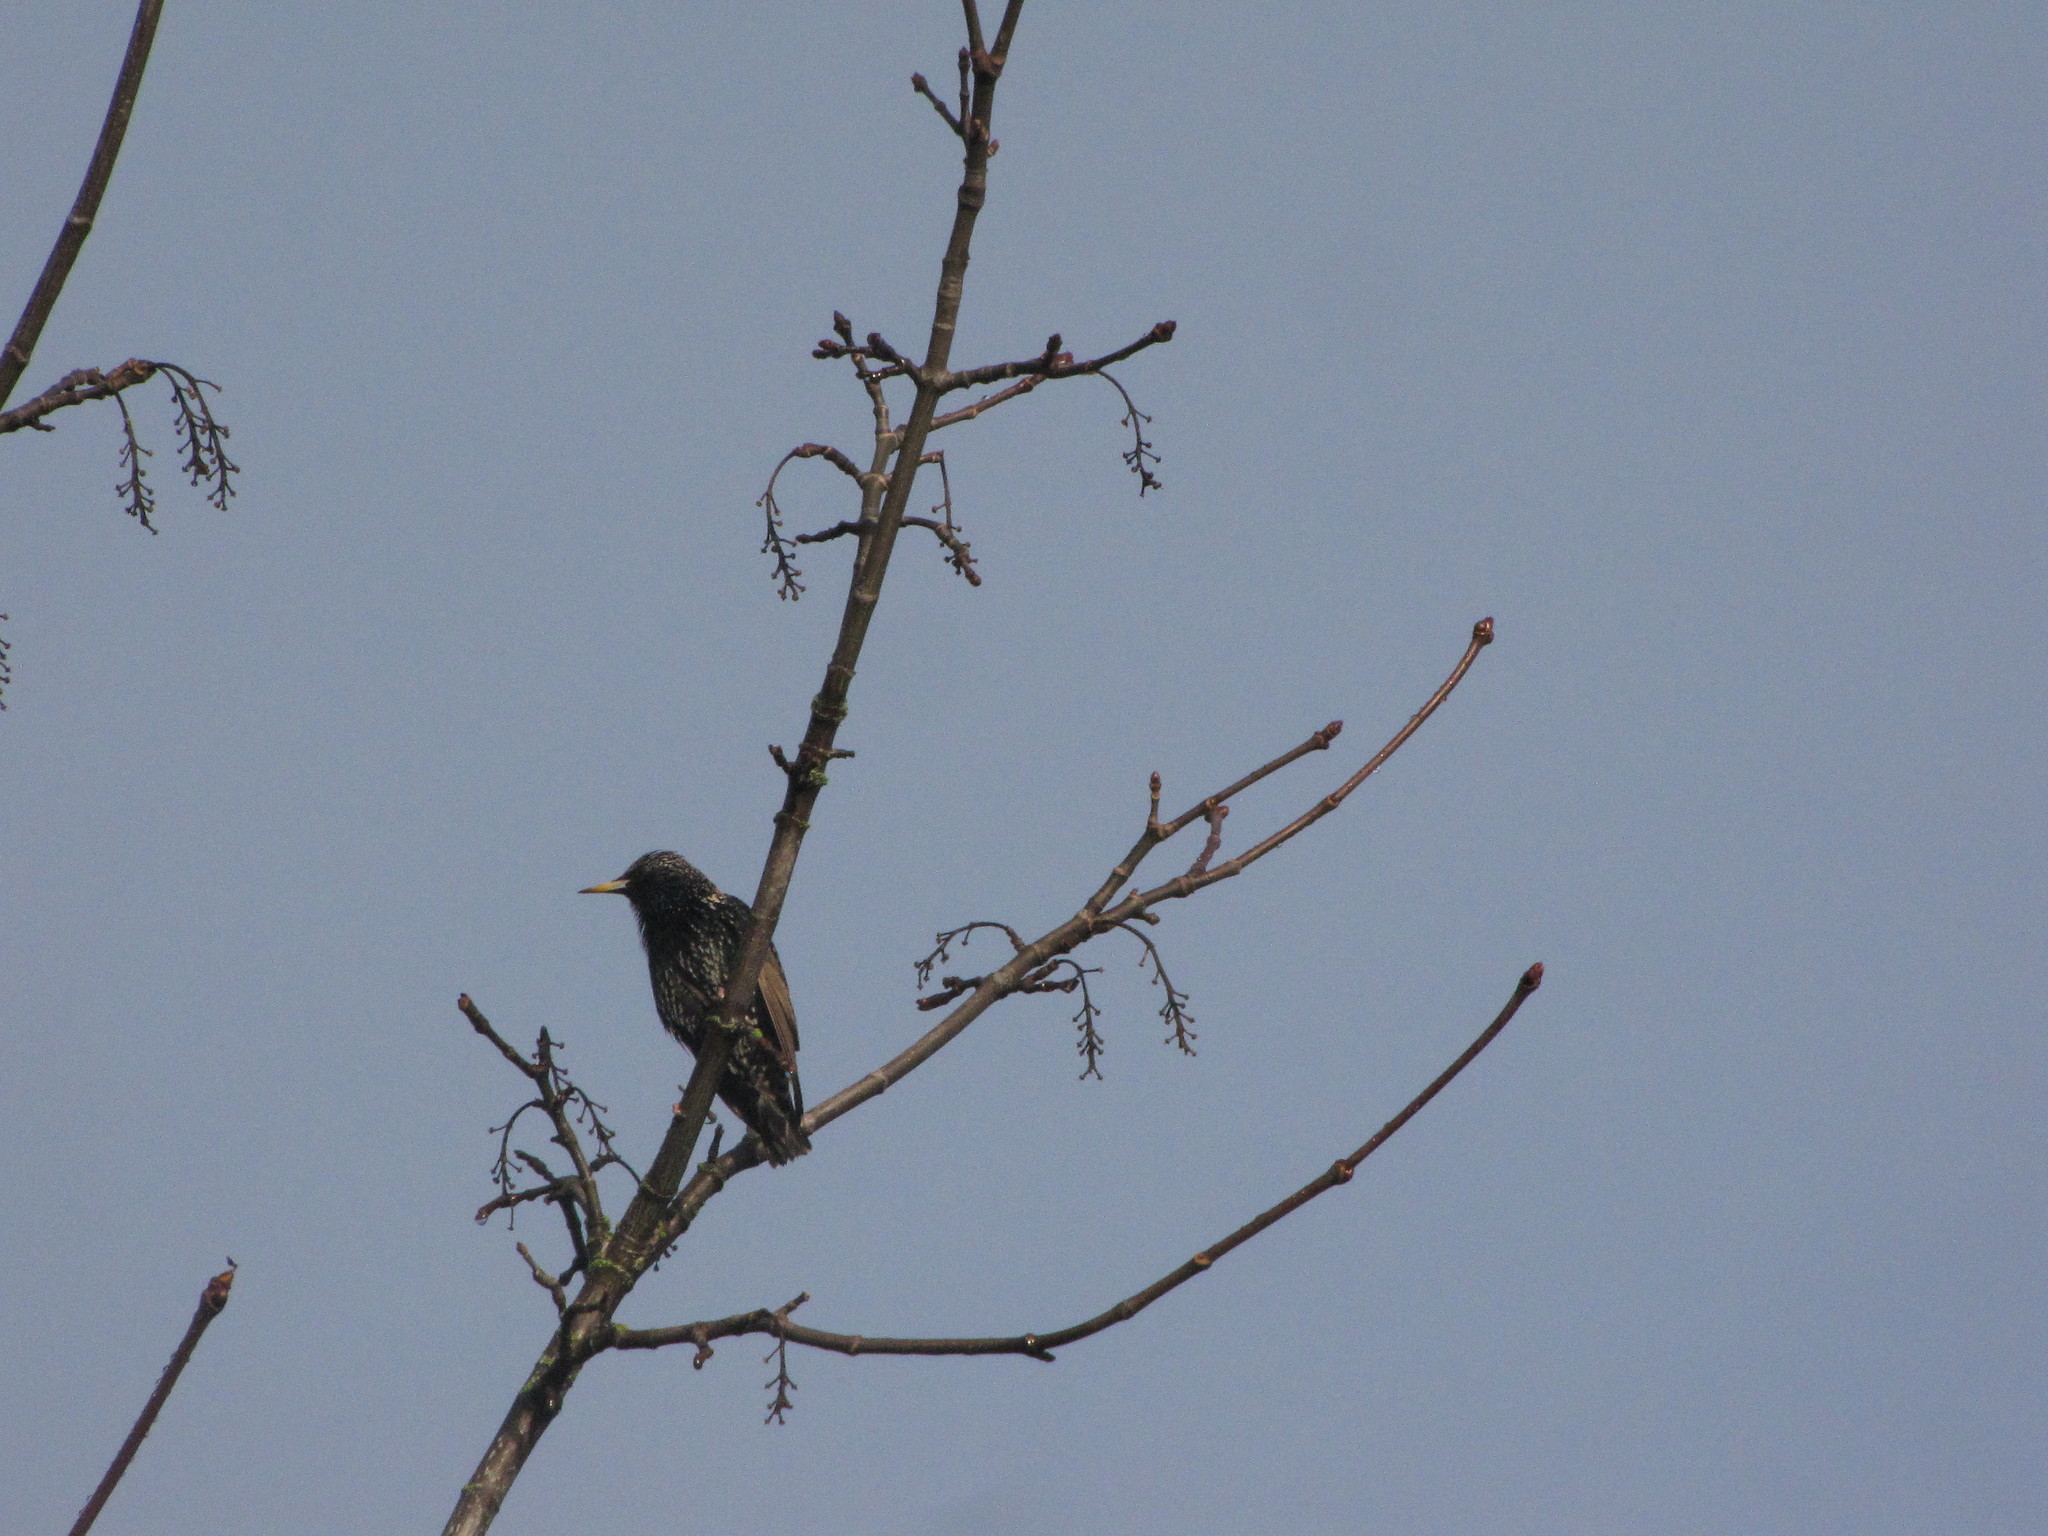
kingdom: Animalia
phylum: Chordata
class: Aves
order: Passeriformes
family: Sturnidae
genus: Sturnus
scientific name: Sturnus vulgaris
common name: Common starling
